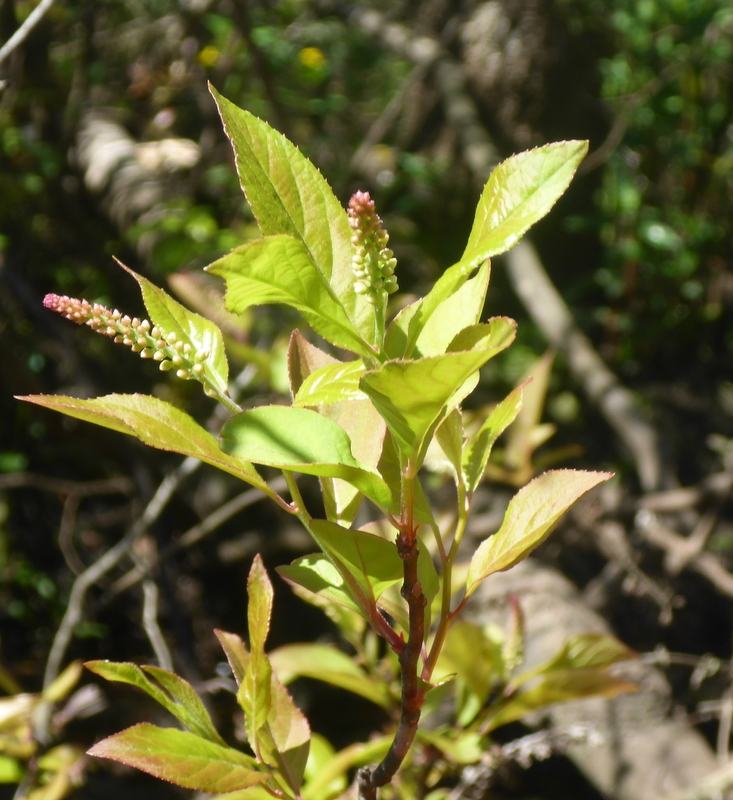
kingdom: Plantae
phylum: Tracheophyta
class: Magnoliopsida
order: Saxifragales
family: Iteaceae
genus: Itea
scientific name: Itea virginica
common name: Sweetspire
